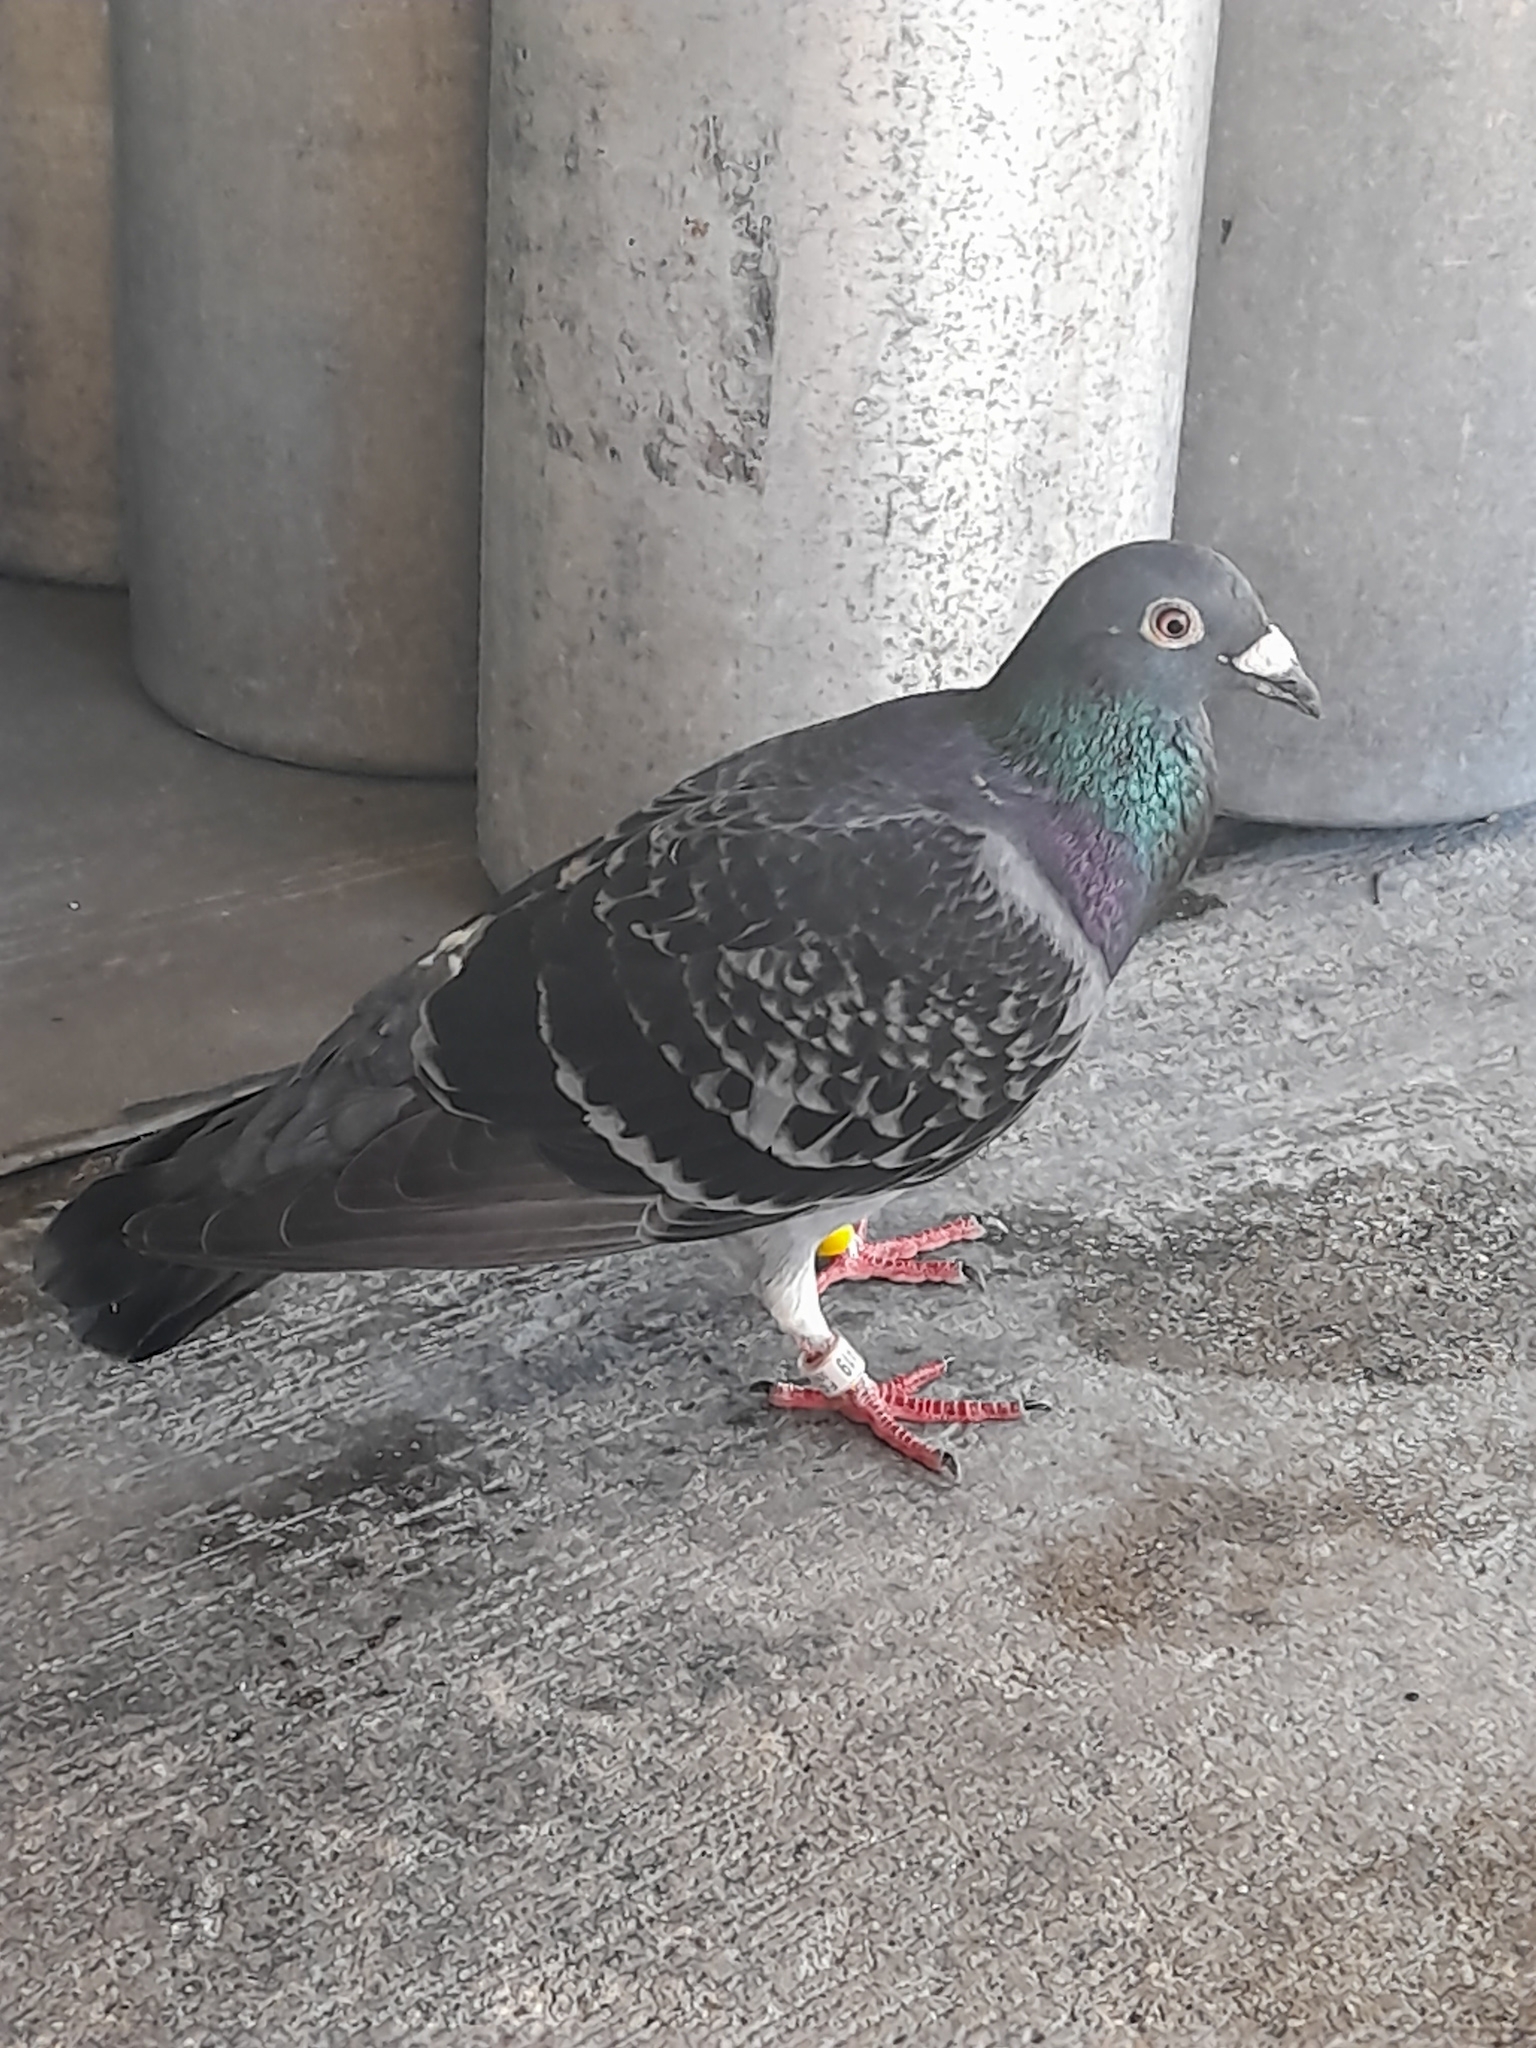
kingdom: Animalia
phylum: Chordata
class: Aves
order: Columbiformes
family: Columbidae
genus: Columba
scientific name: Columba livia
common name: Rock pigeon
